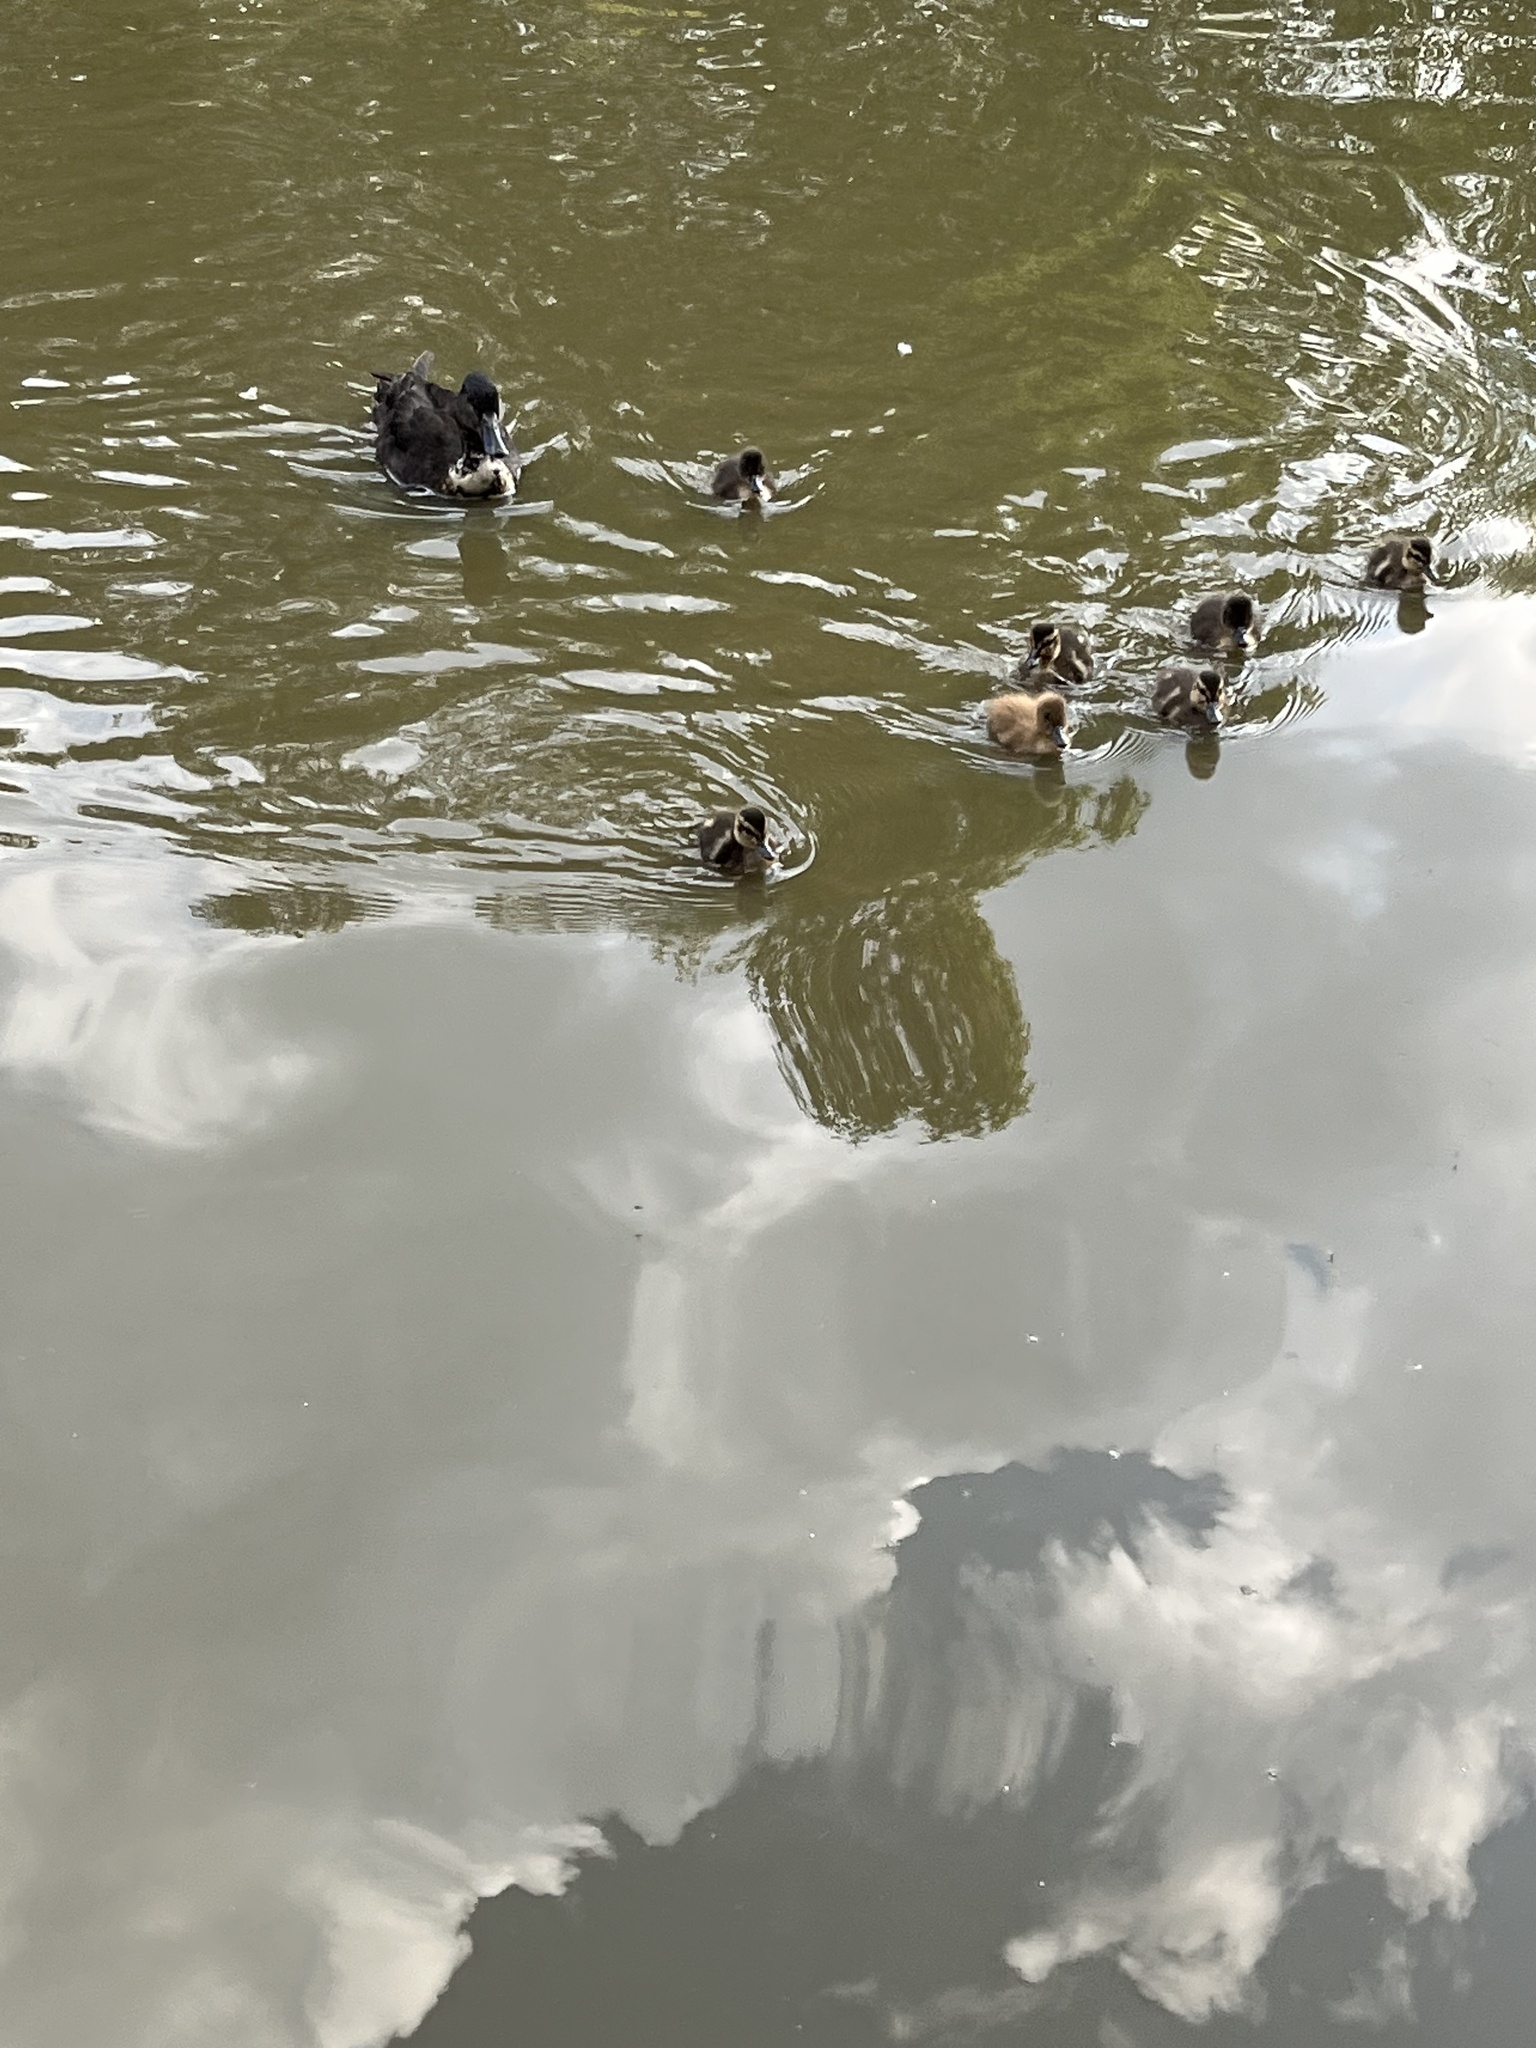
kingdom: Animalia
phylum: Chordata
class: Aves
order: Anseriformes
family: Anatidae
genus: Anas
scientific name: Anas platyrhynchos
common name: Mallard
